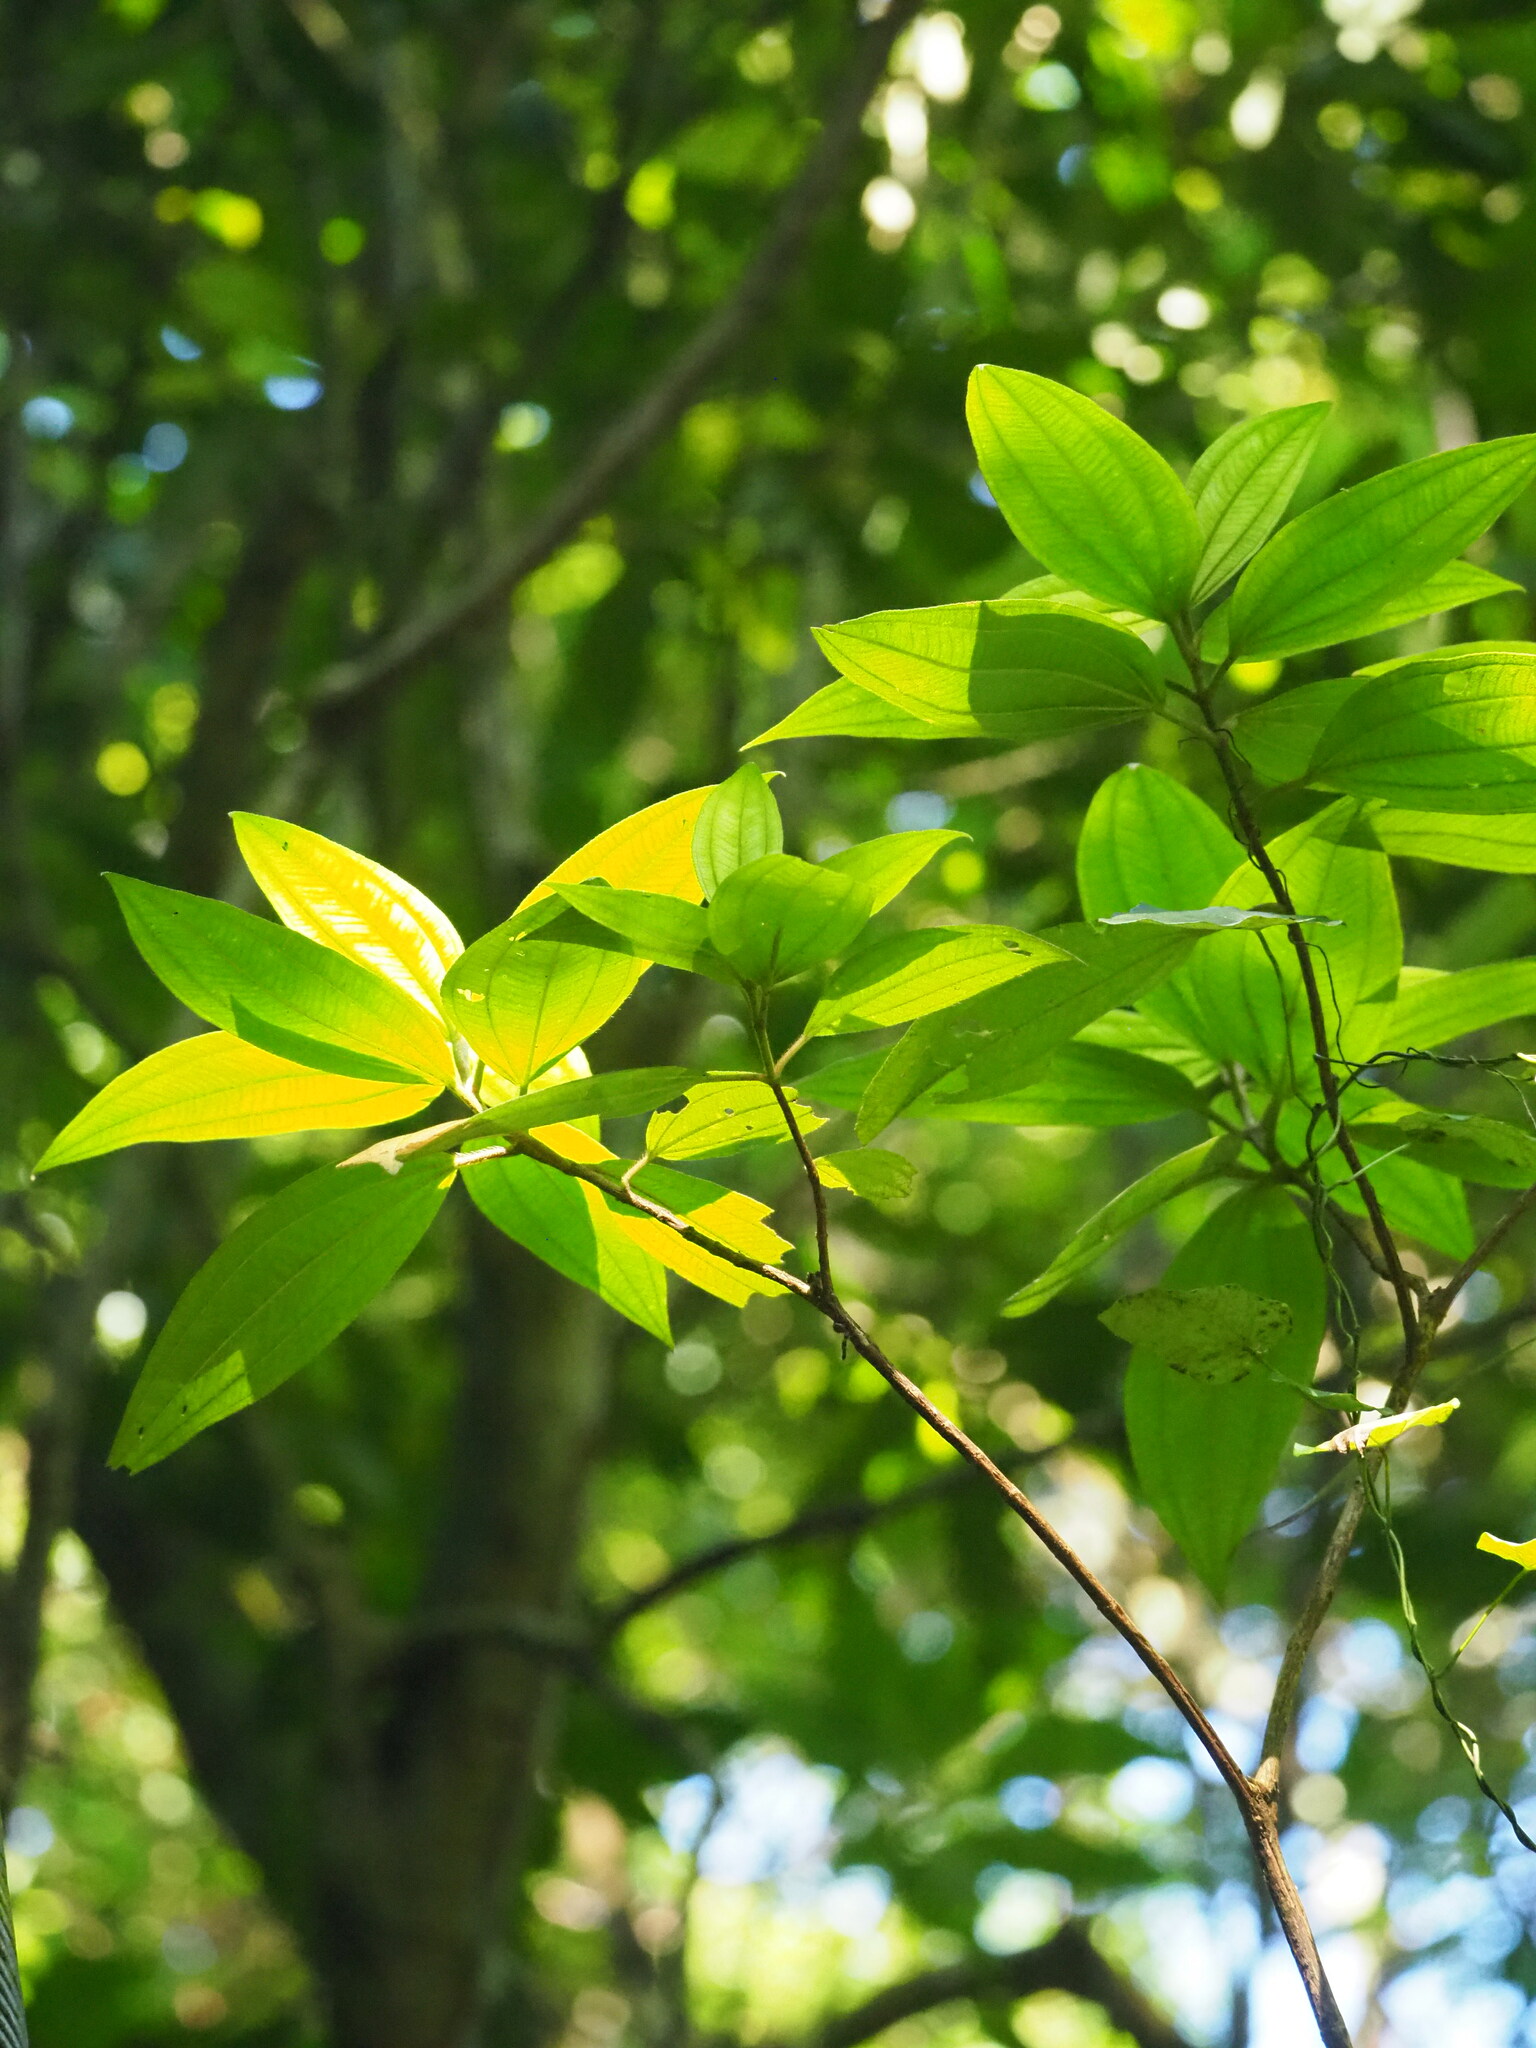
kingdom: Plantae
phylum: Tracheophyta
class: Magnoliopsida
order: Myrtales
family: Melastomataceae
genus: Melastoma
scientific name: Melastoma malabathricum
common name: Indian-rhododendron
